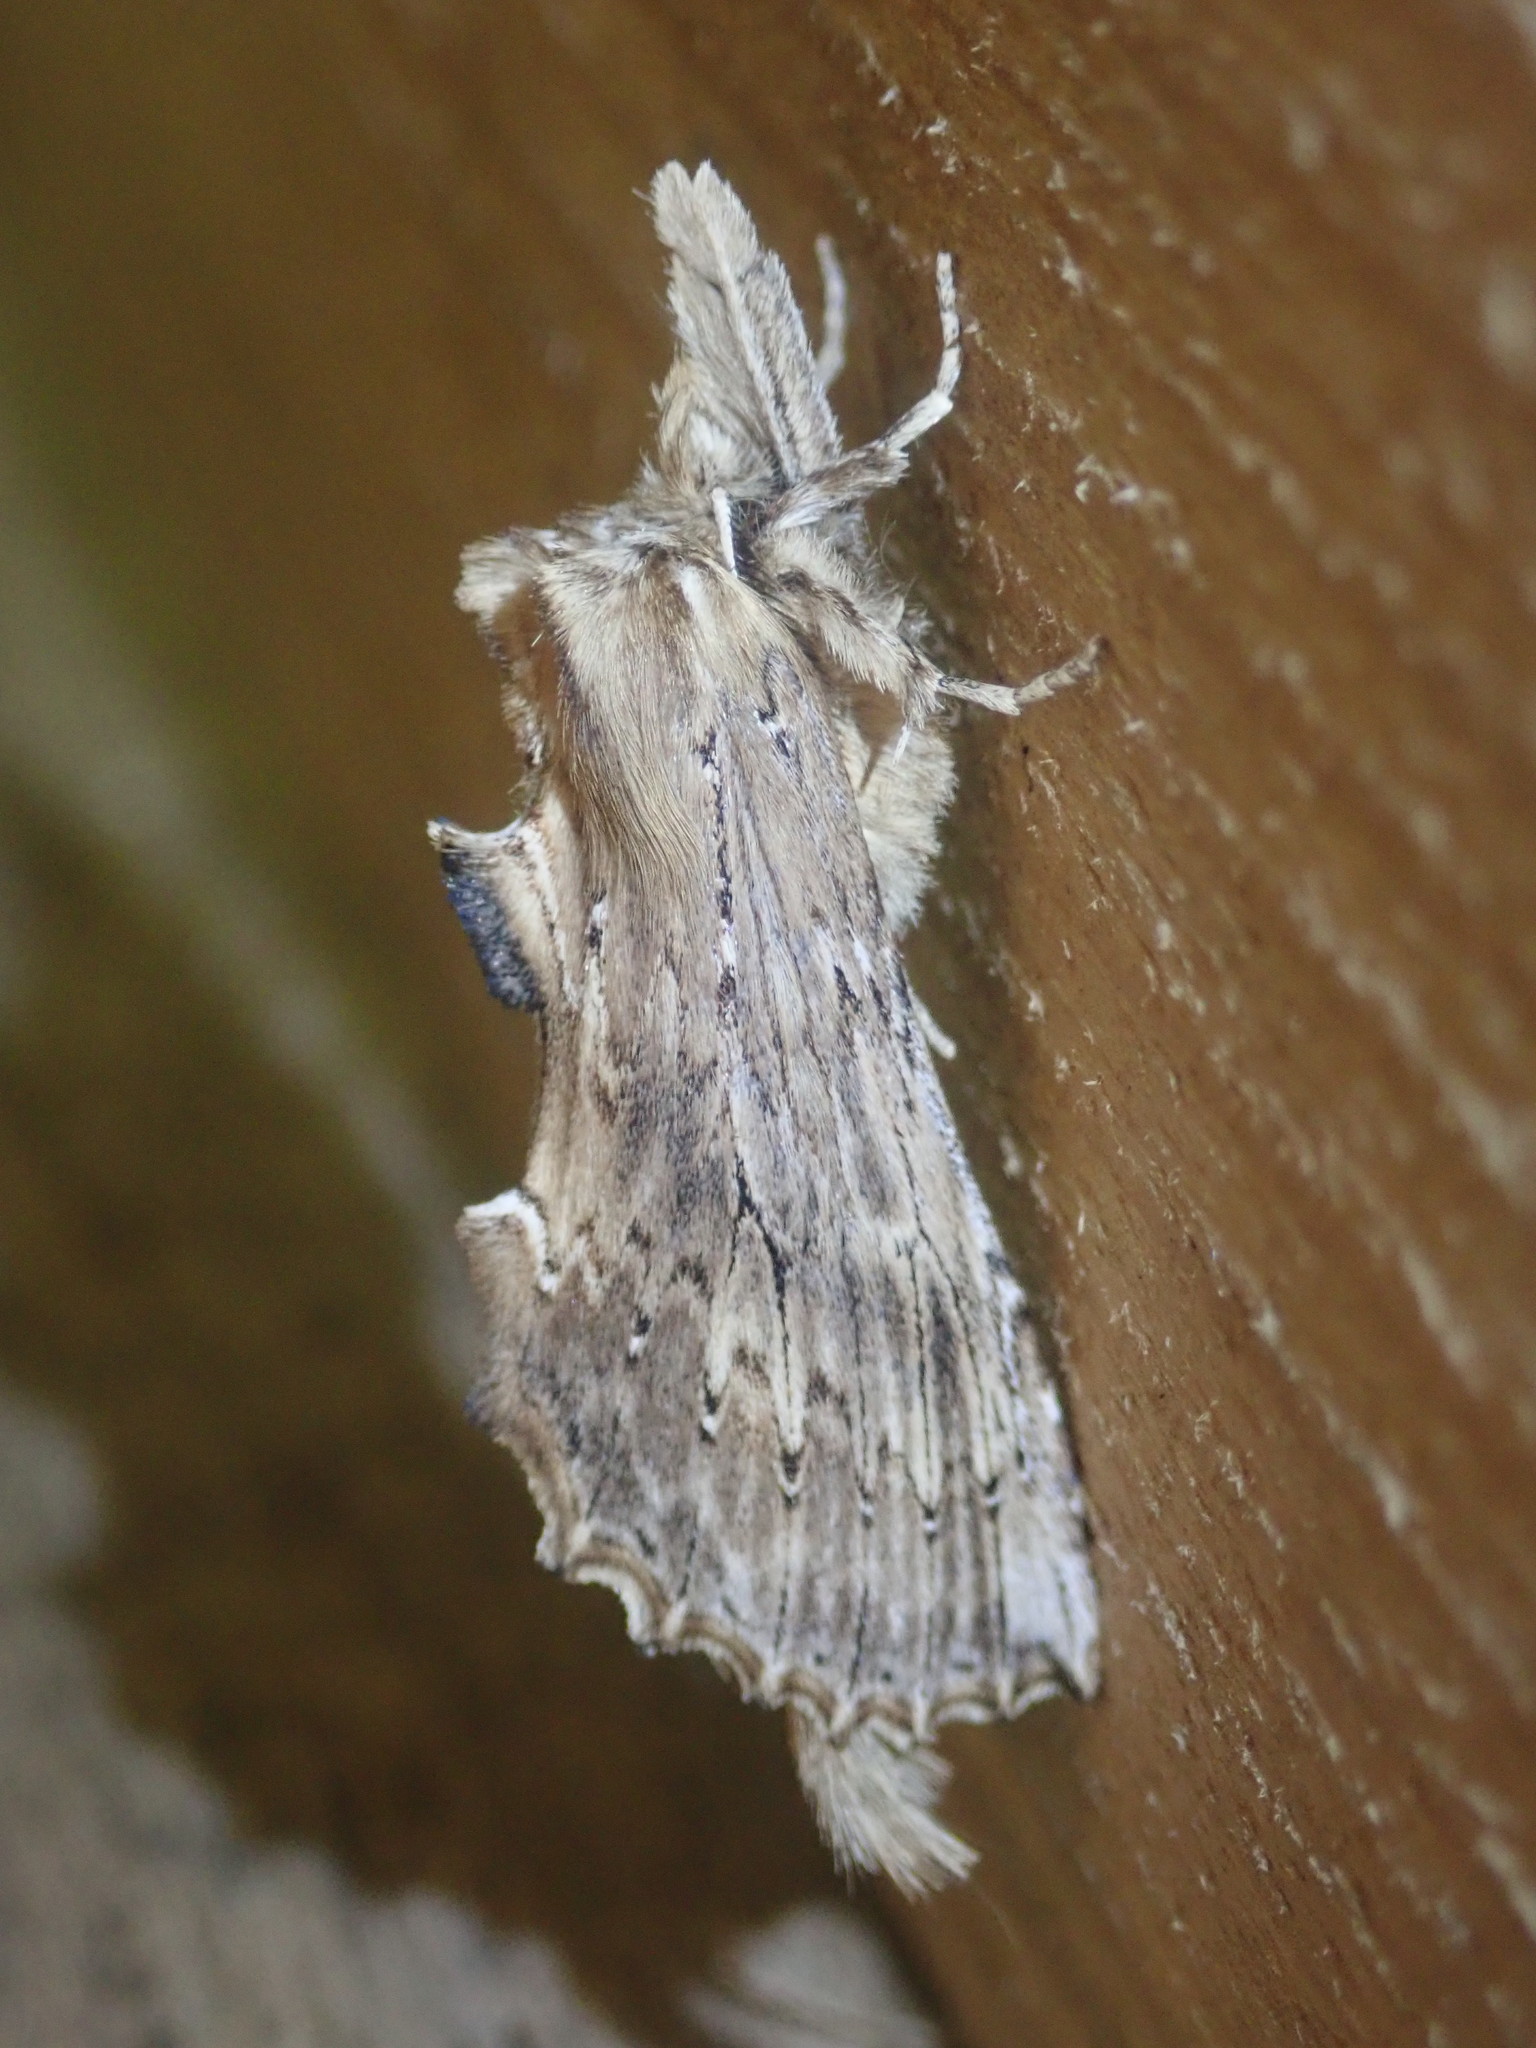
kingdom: Animalia
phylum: Arthropoda
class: Insecta
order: Lepidoptera
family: Notodontidae
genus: Pterostoma
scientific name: Pterostoma palpina
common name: Pale prominent
